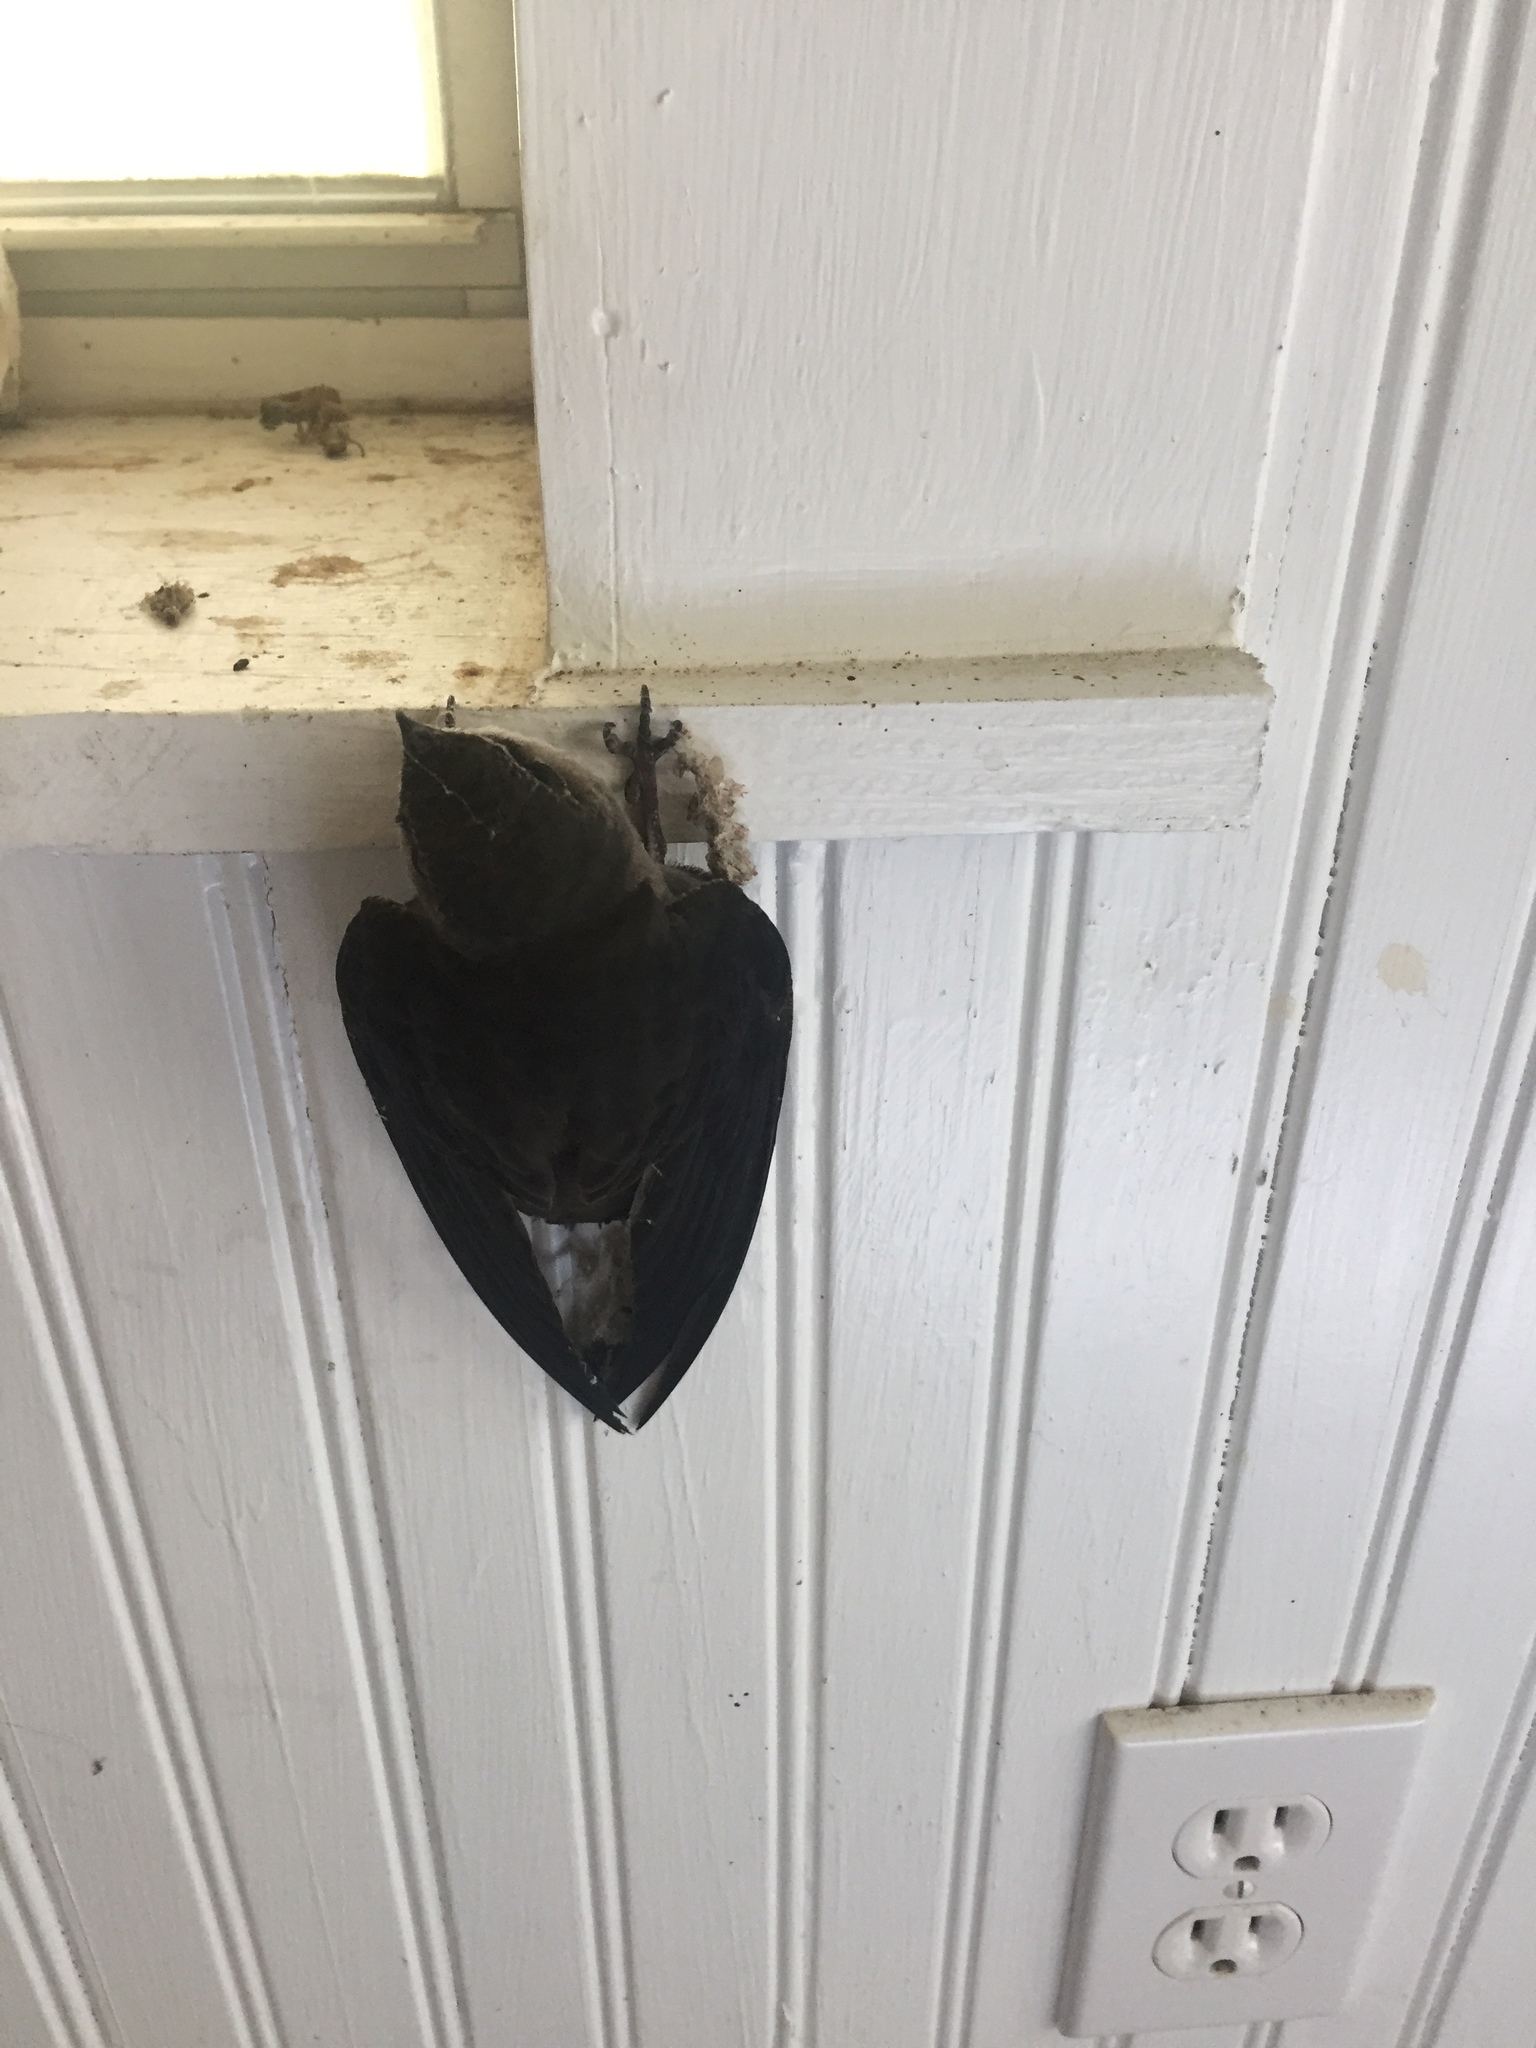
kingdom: Animalia
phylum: Chordata
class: Aves
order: Apodiformes
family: Apodidae
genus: Chaetura
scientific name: Chaetura pelagica
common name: Chimney swift
